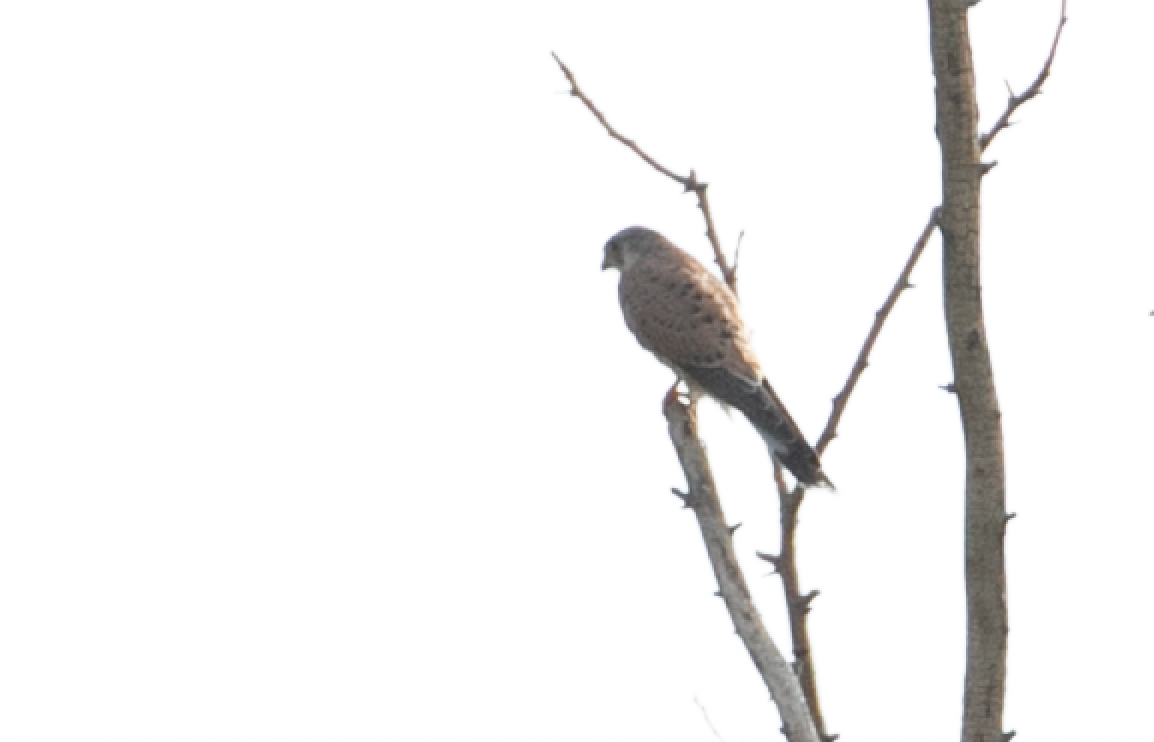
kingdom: Animalia
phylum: Chordata
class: Aves
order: Falconiformes
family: Falconidae
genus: Falco
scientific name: Falco tinnunculus
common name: Common kestrel
